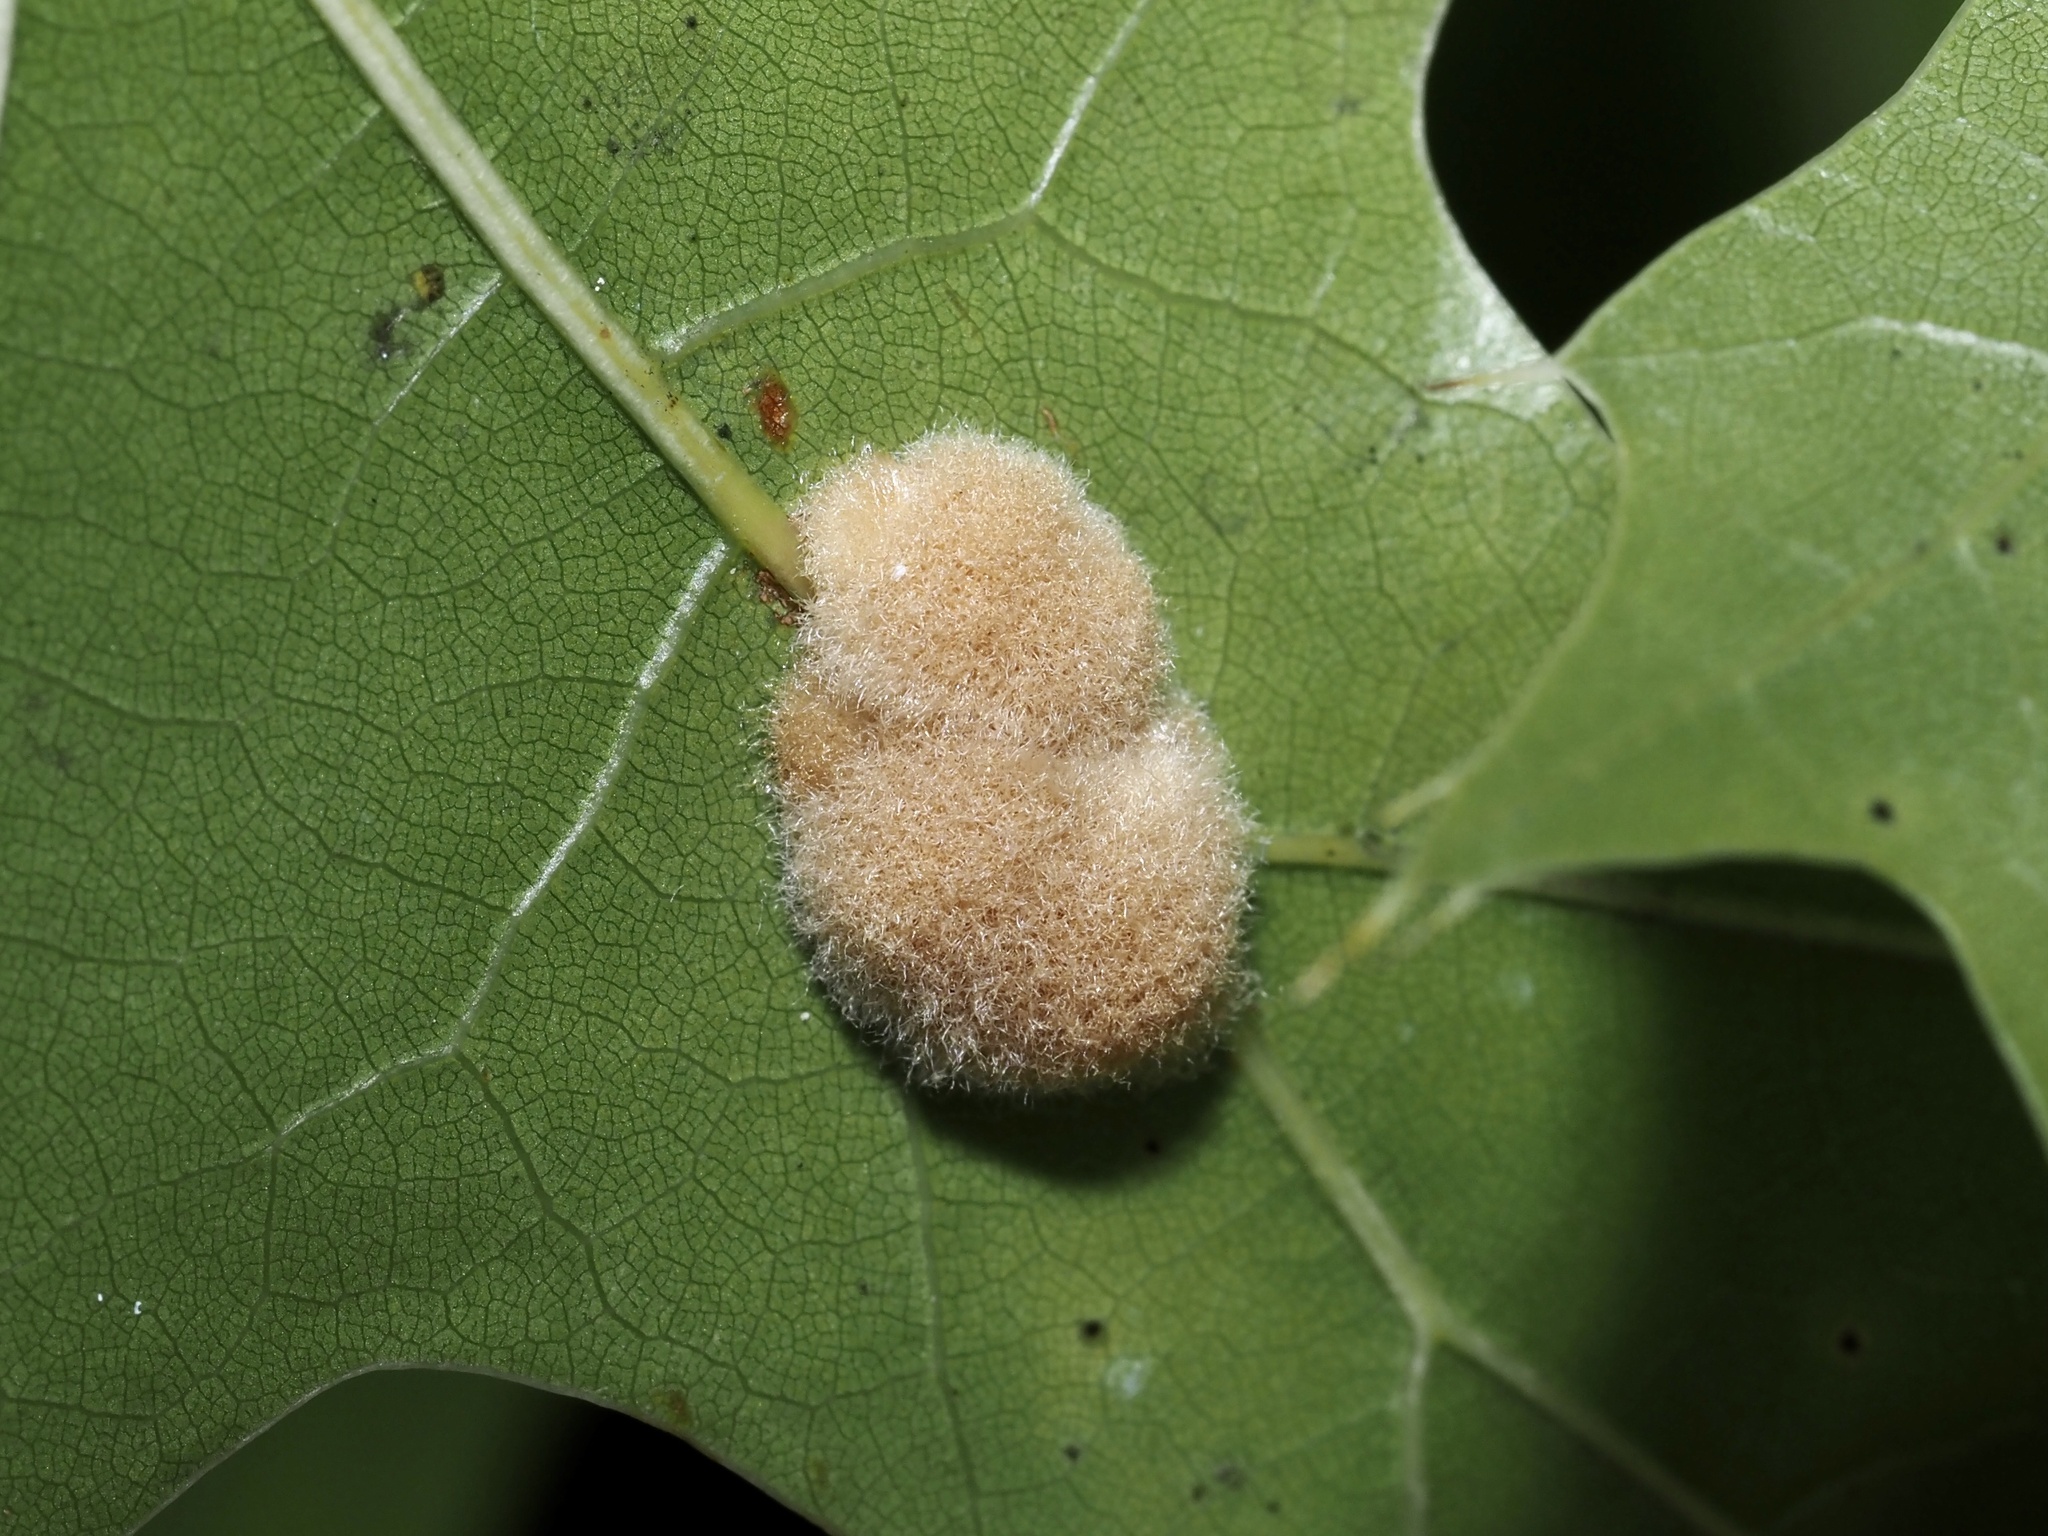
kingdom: Animalia
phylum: Arthropoda
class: Insecta
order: Hymenoptera
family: Cynipidae
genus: Callirhytis
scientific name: Callirhytis
